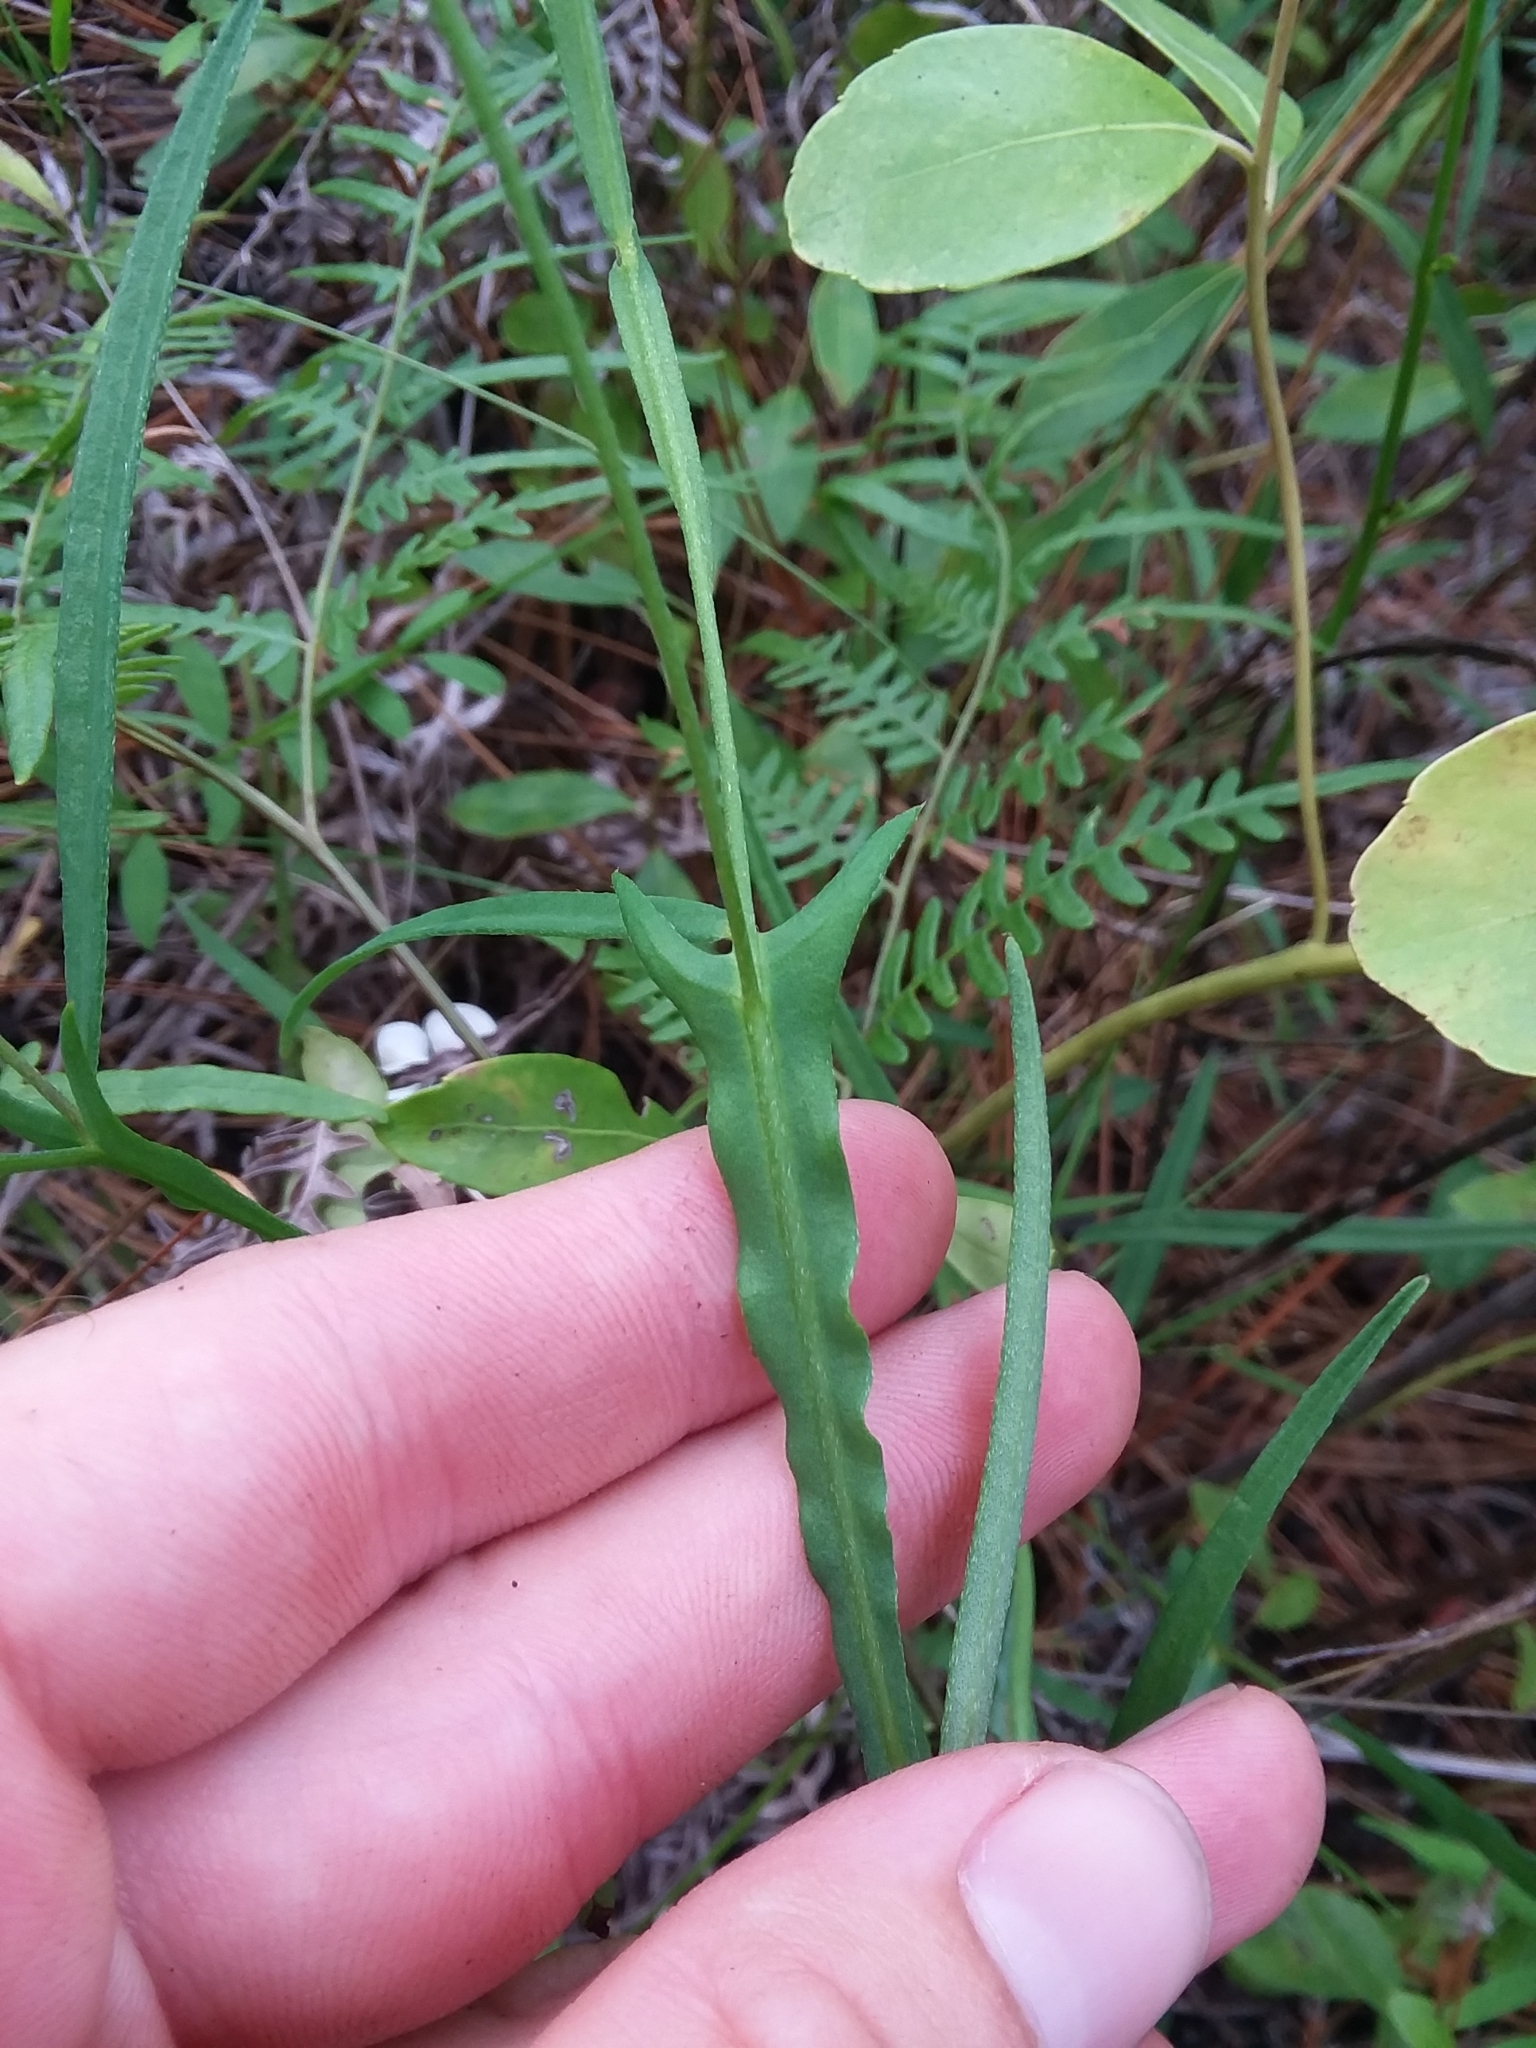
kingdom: Plantae
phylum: Tracheophyta
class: Magnoliopsida
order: Fabales
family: Fabaceae
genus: Crotalaria
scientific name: Crotalaria purshii
